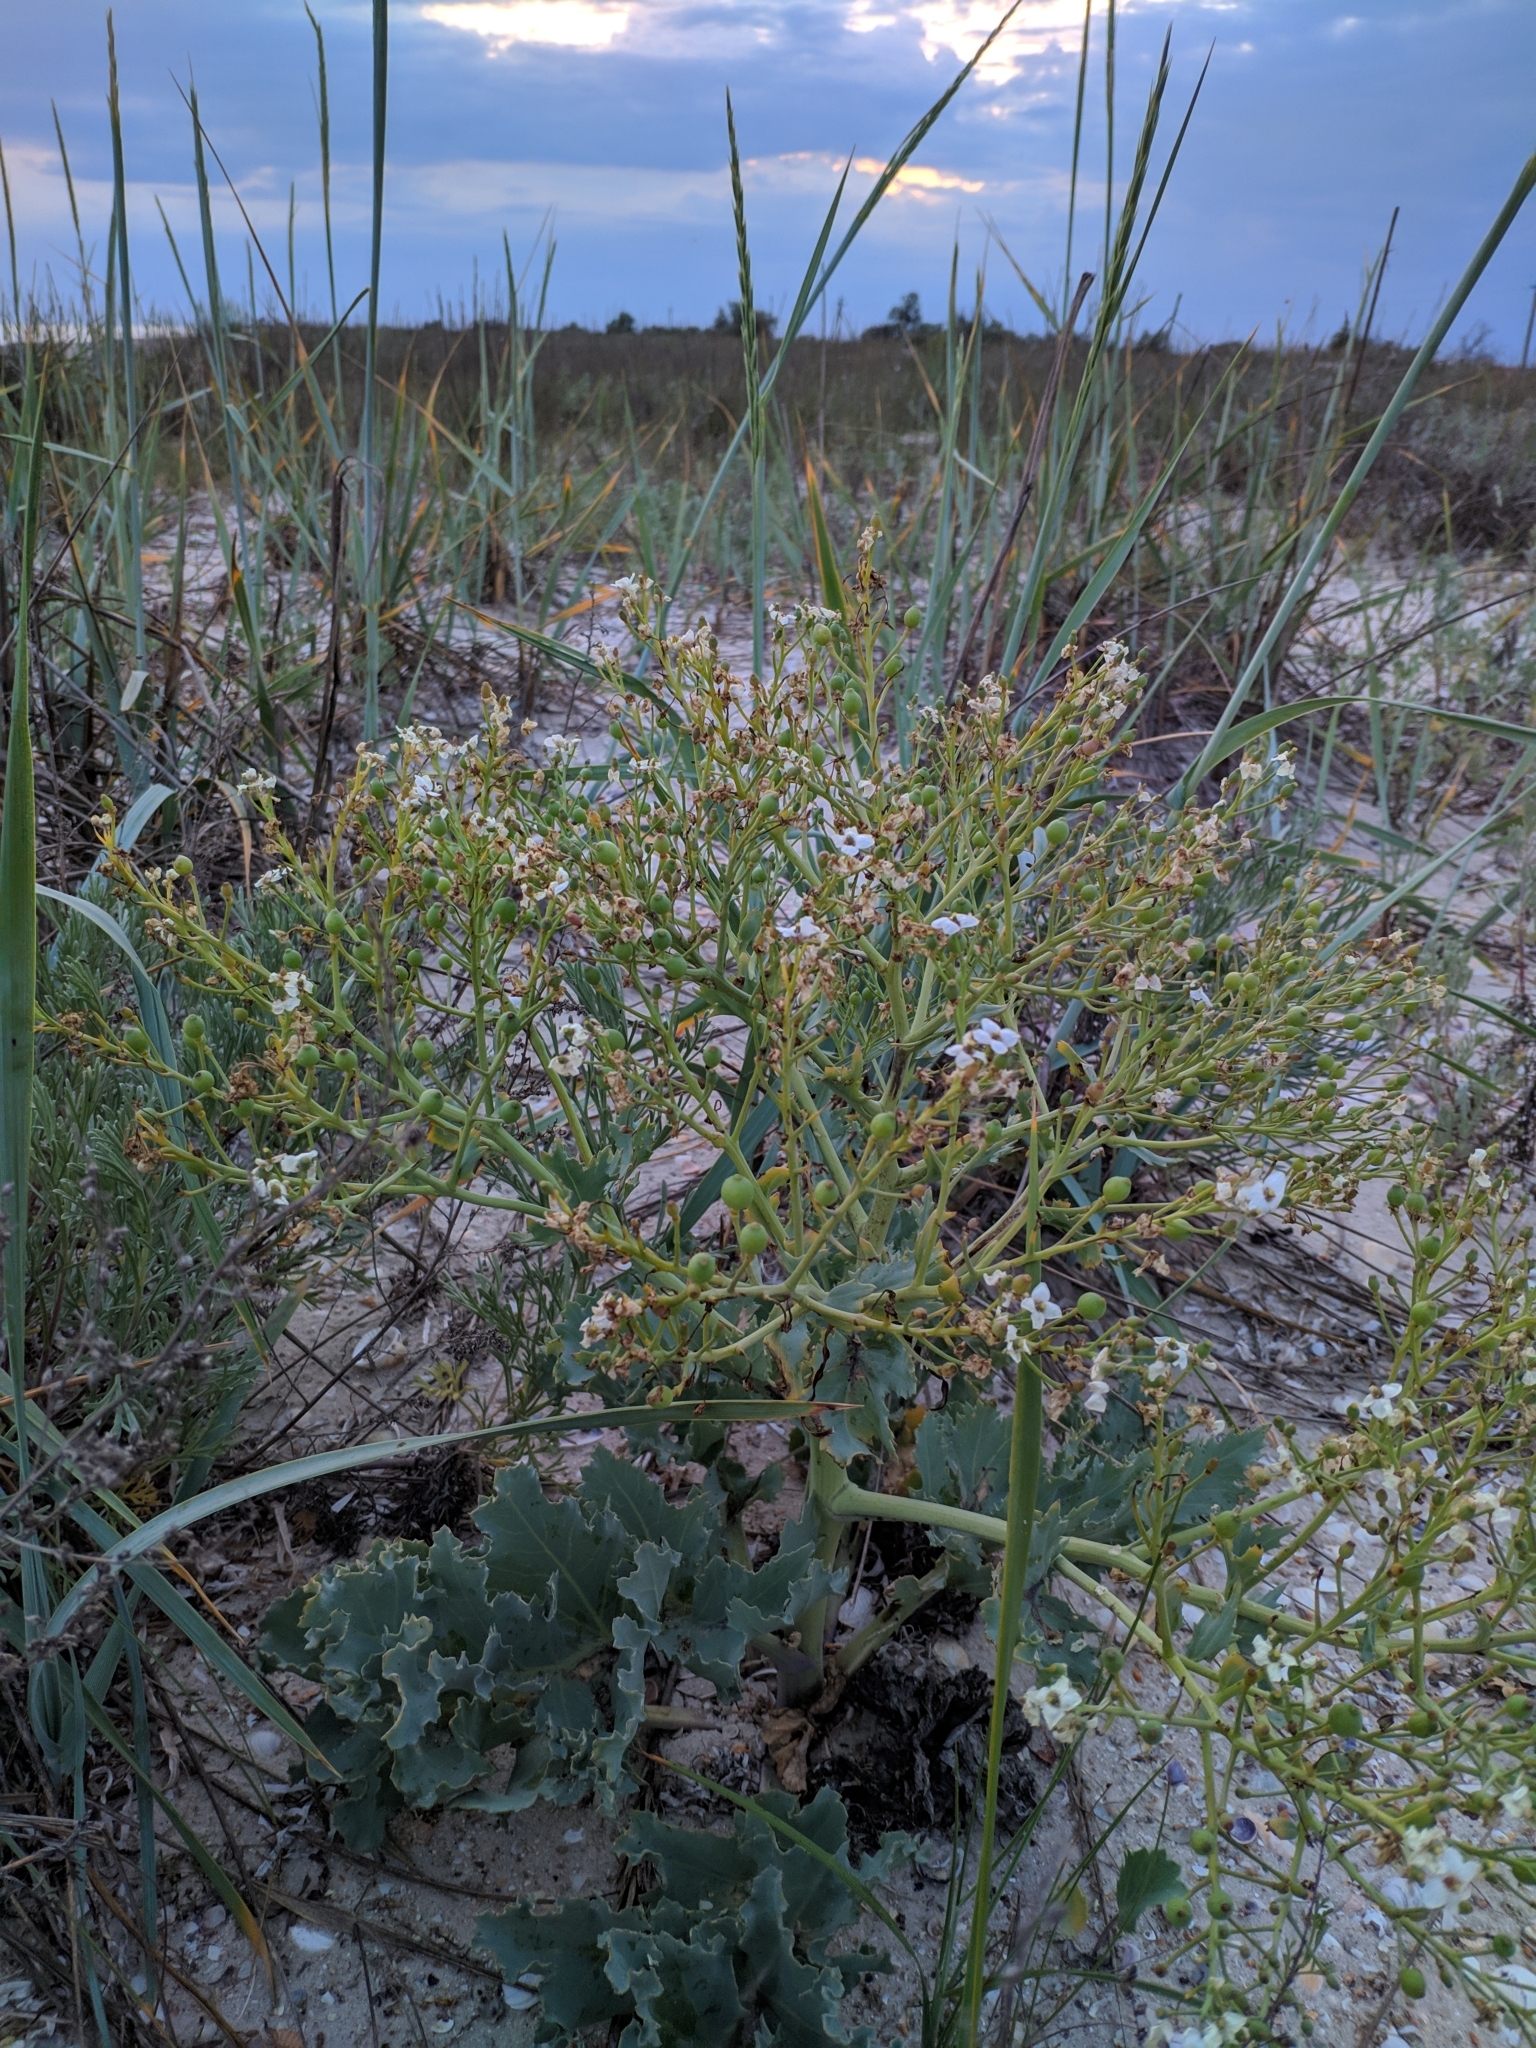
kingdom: Plantae
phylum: Tracheophyta
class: Magnoliopsida
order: Brassicales
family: Brassicaceae
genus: Crambe
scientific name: Crambe maritima
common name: Sea-kale
